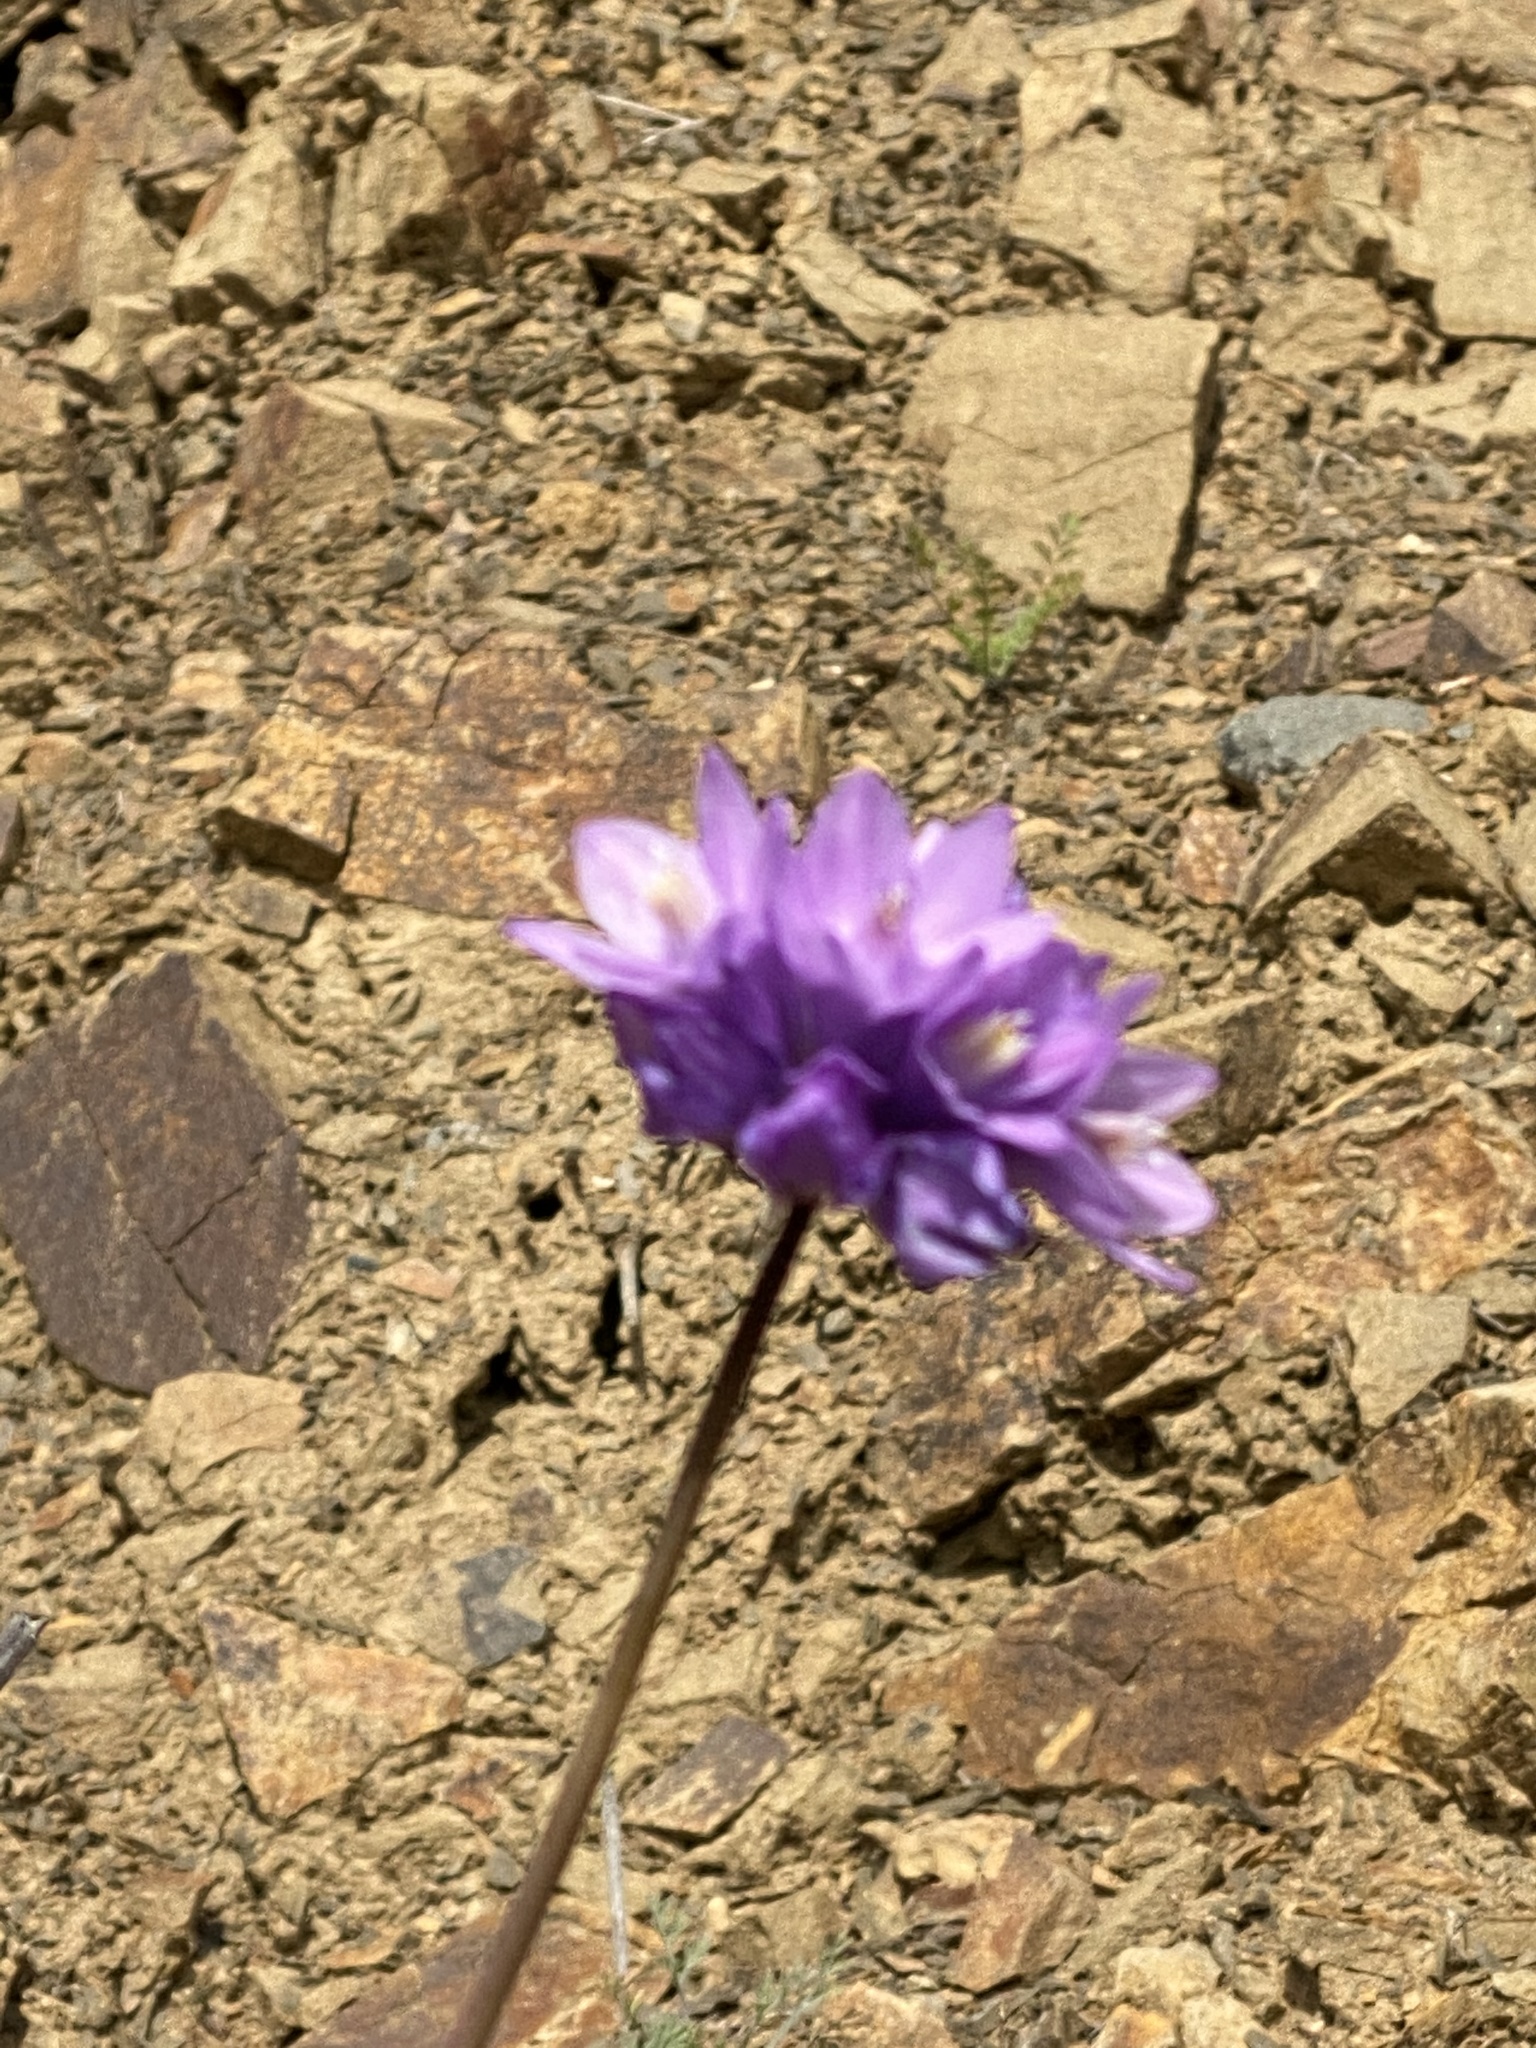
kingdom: Plantae
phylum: Tracheophyta
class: Liliopsida
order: Asparagales
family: Asparagaceae
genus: Dipterostemon
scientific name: Dipterostemon capitatus
